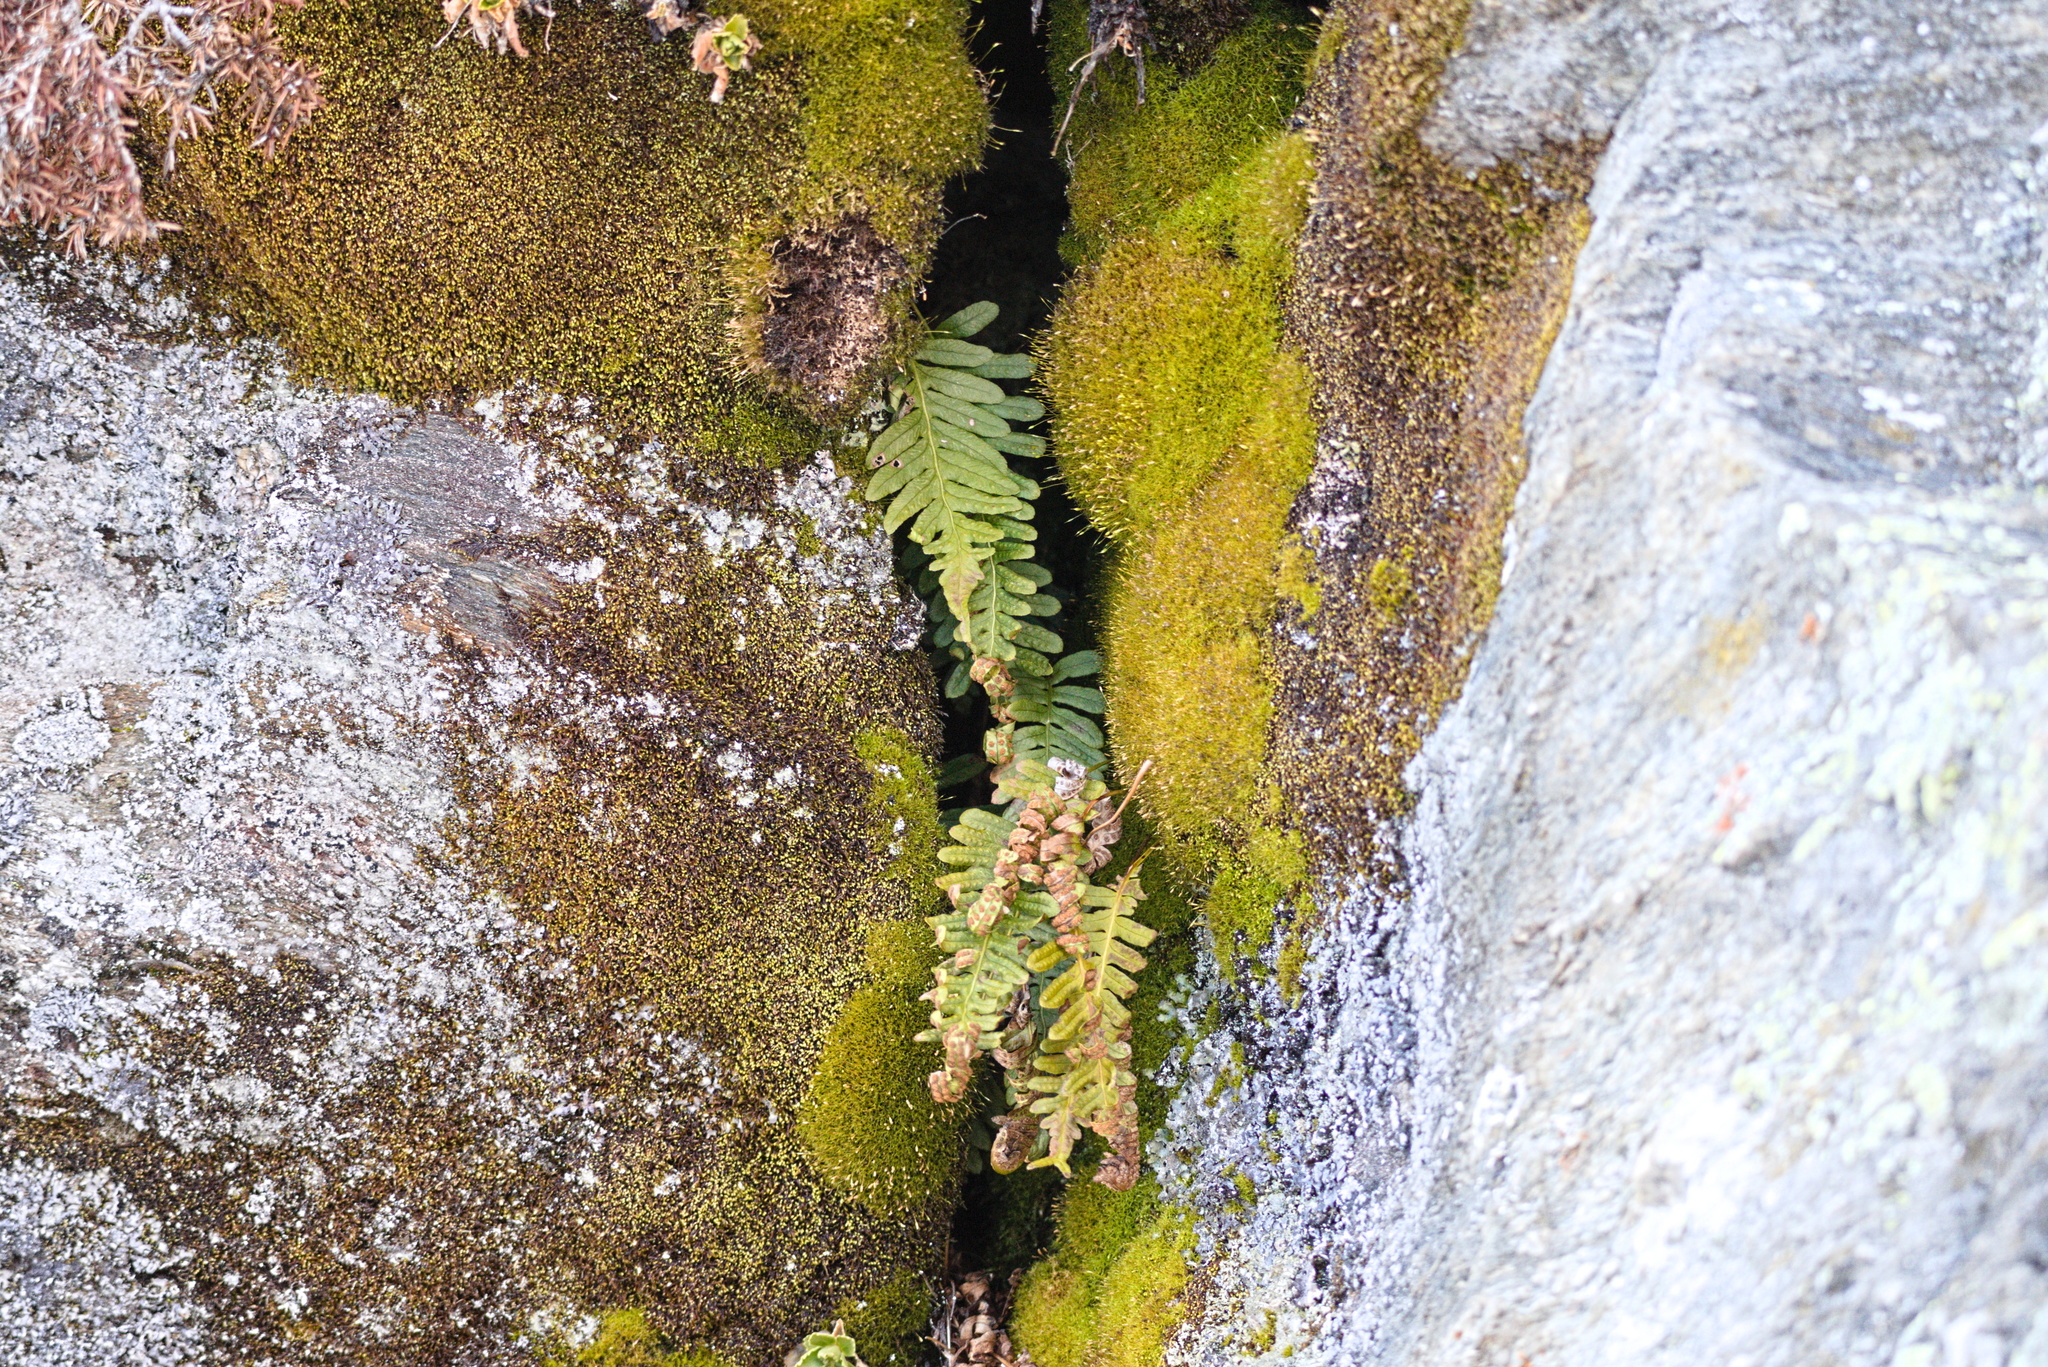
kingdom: Plantae
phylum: Tracheophyta
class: Polypodiopsida
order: Polypodiales
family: Polypodiaceae
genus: Polypodium
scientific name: Polypodium vulgare
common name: Common polypody
